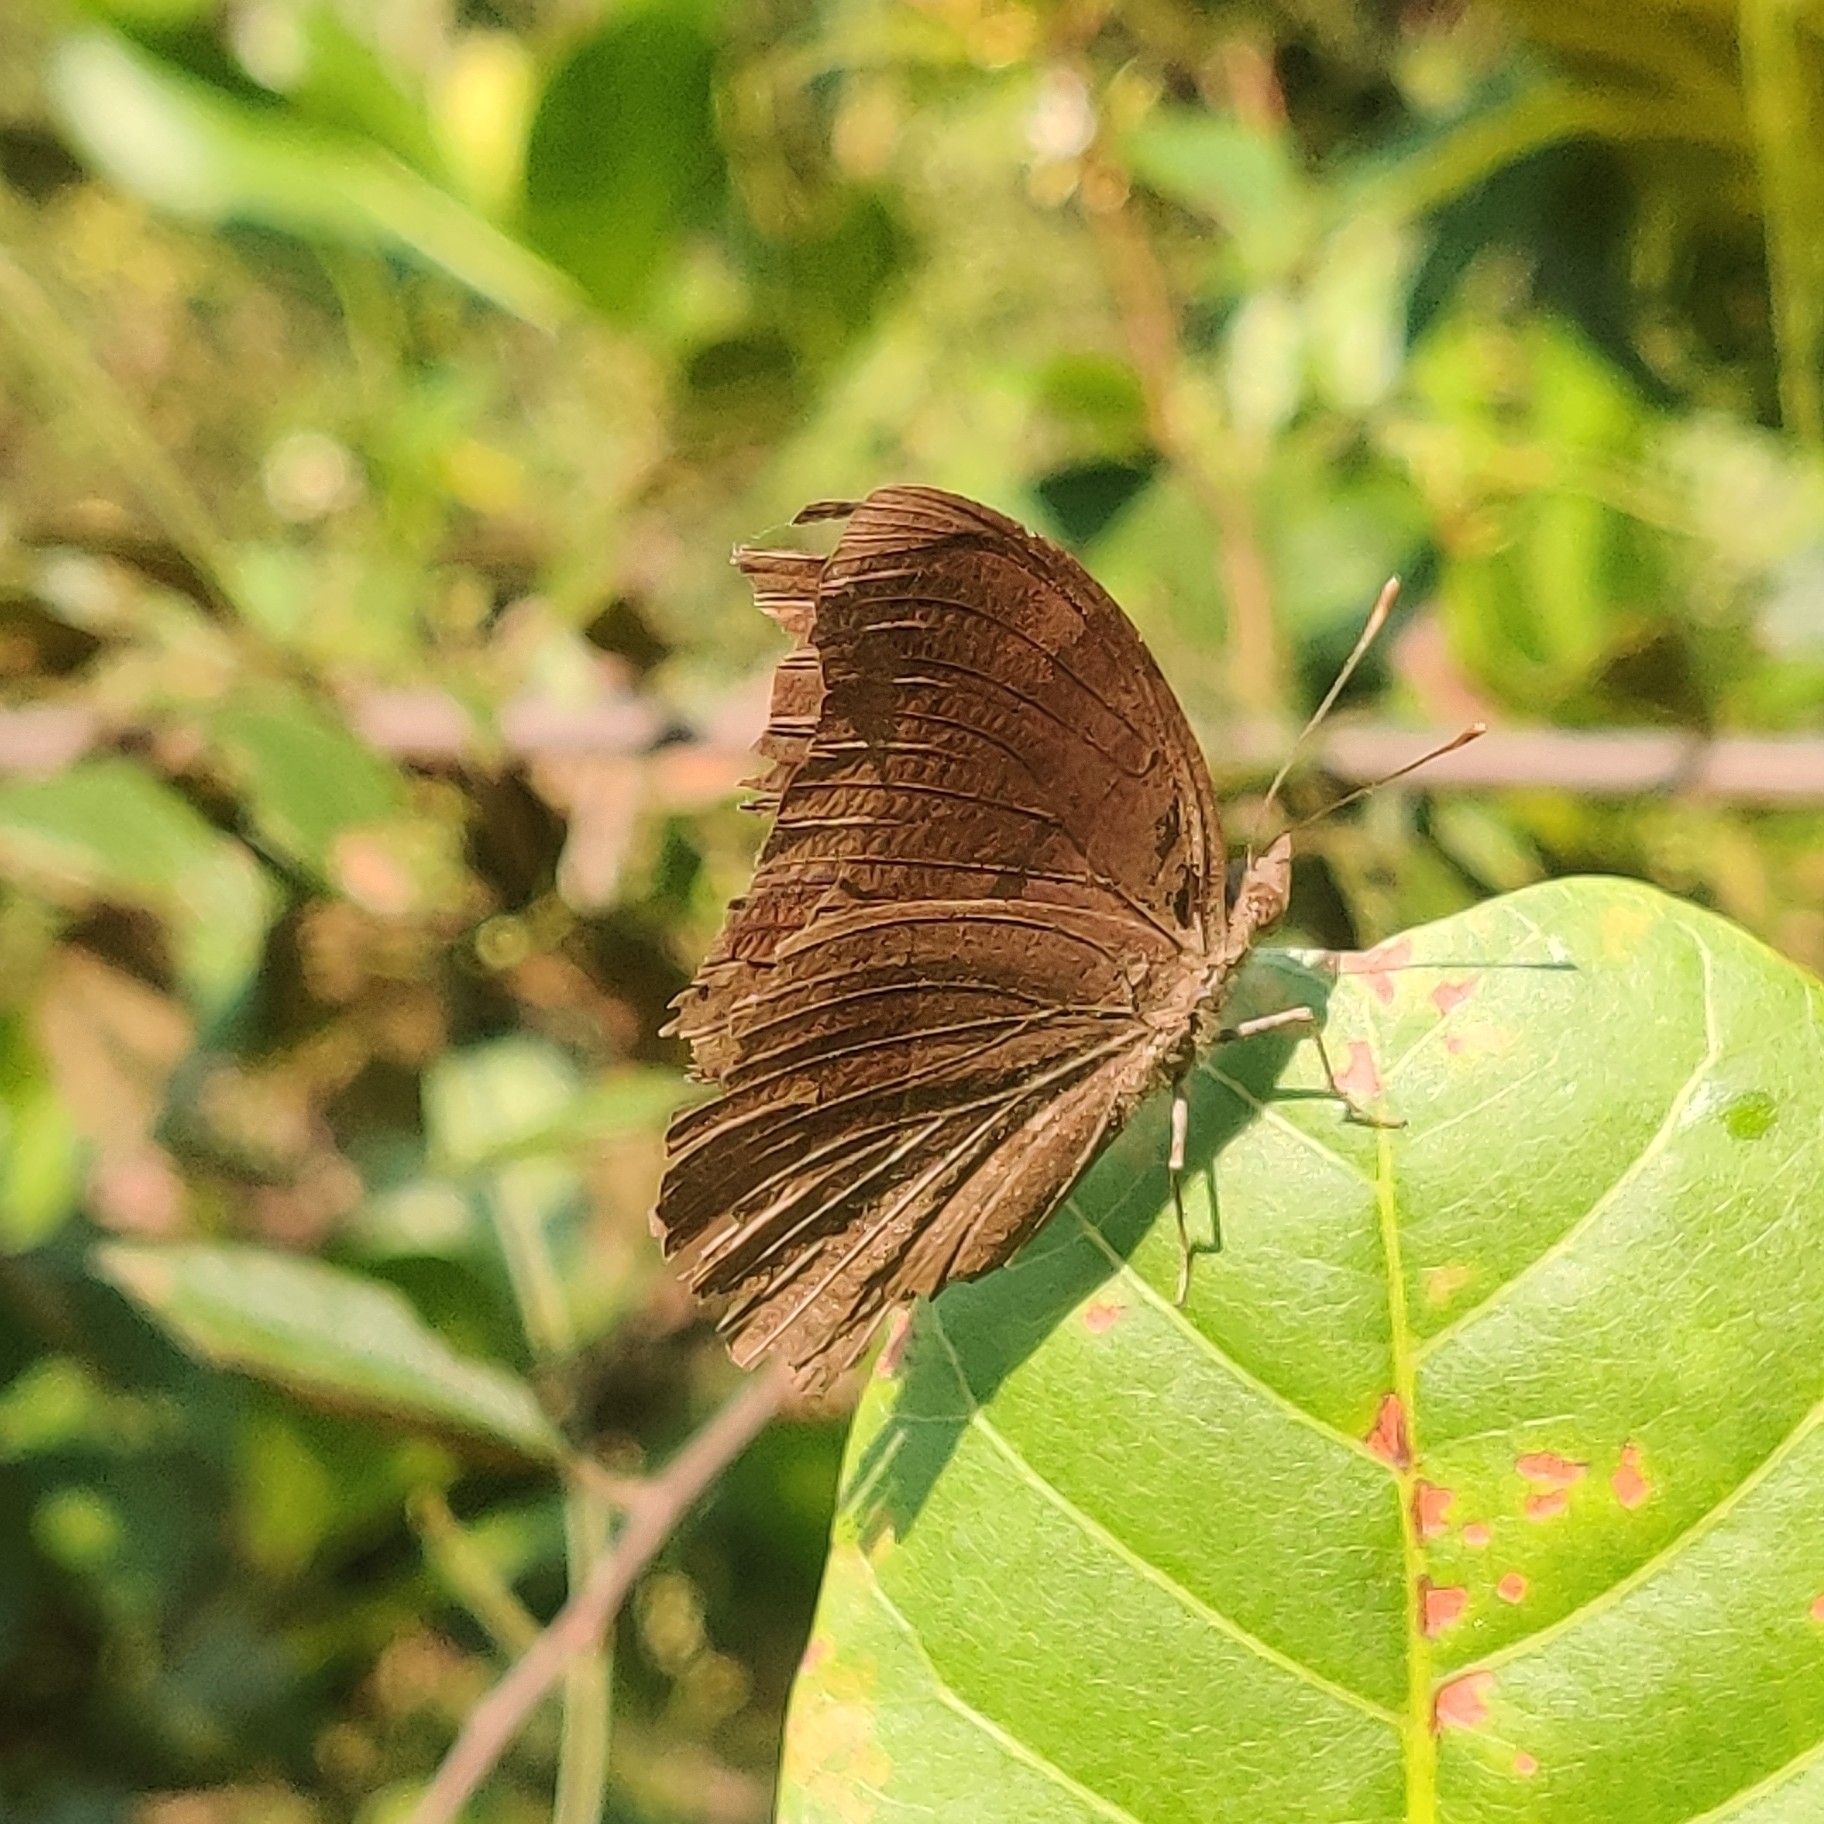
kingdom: Animalia
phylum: Arthropoda
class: Insecta
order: Lepidoptera
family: Nymphalidae
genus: Junonia
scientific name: Junonia iphita
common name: Chocolate pansy
